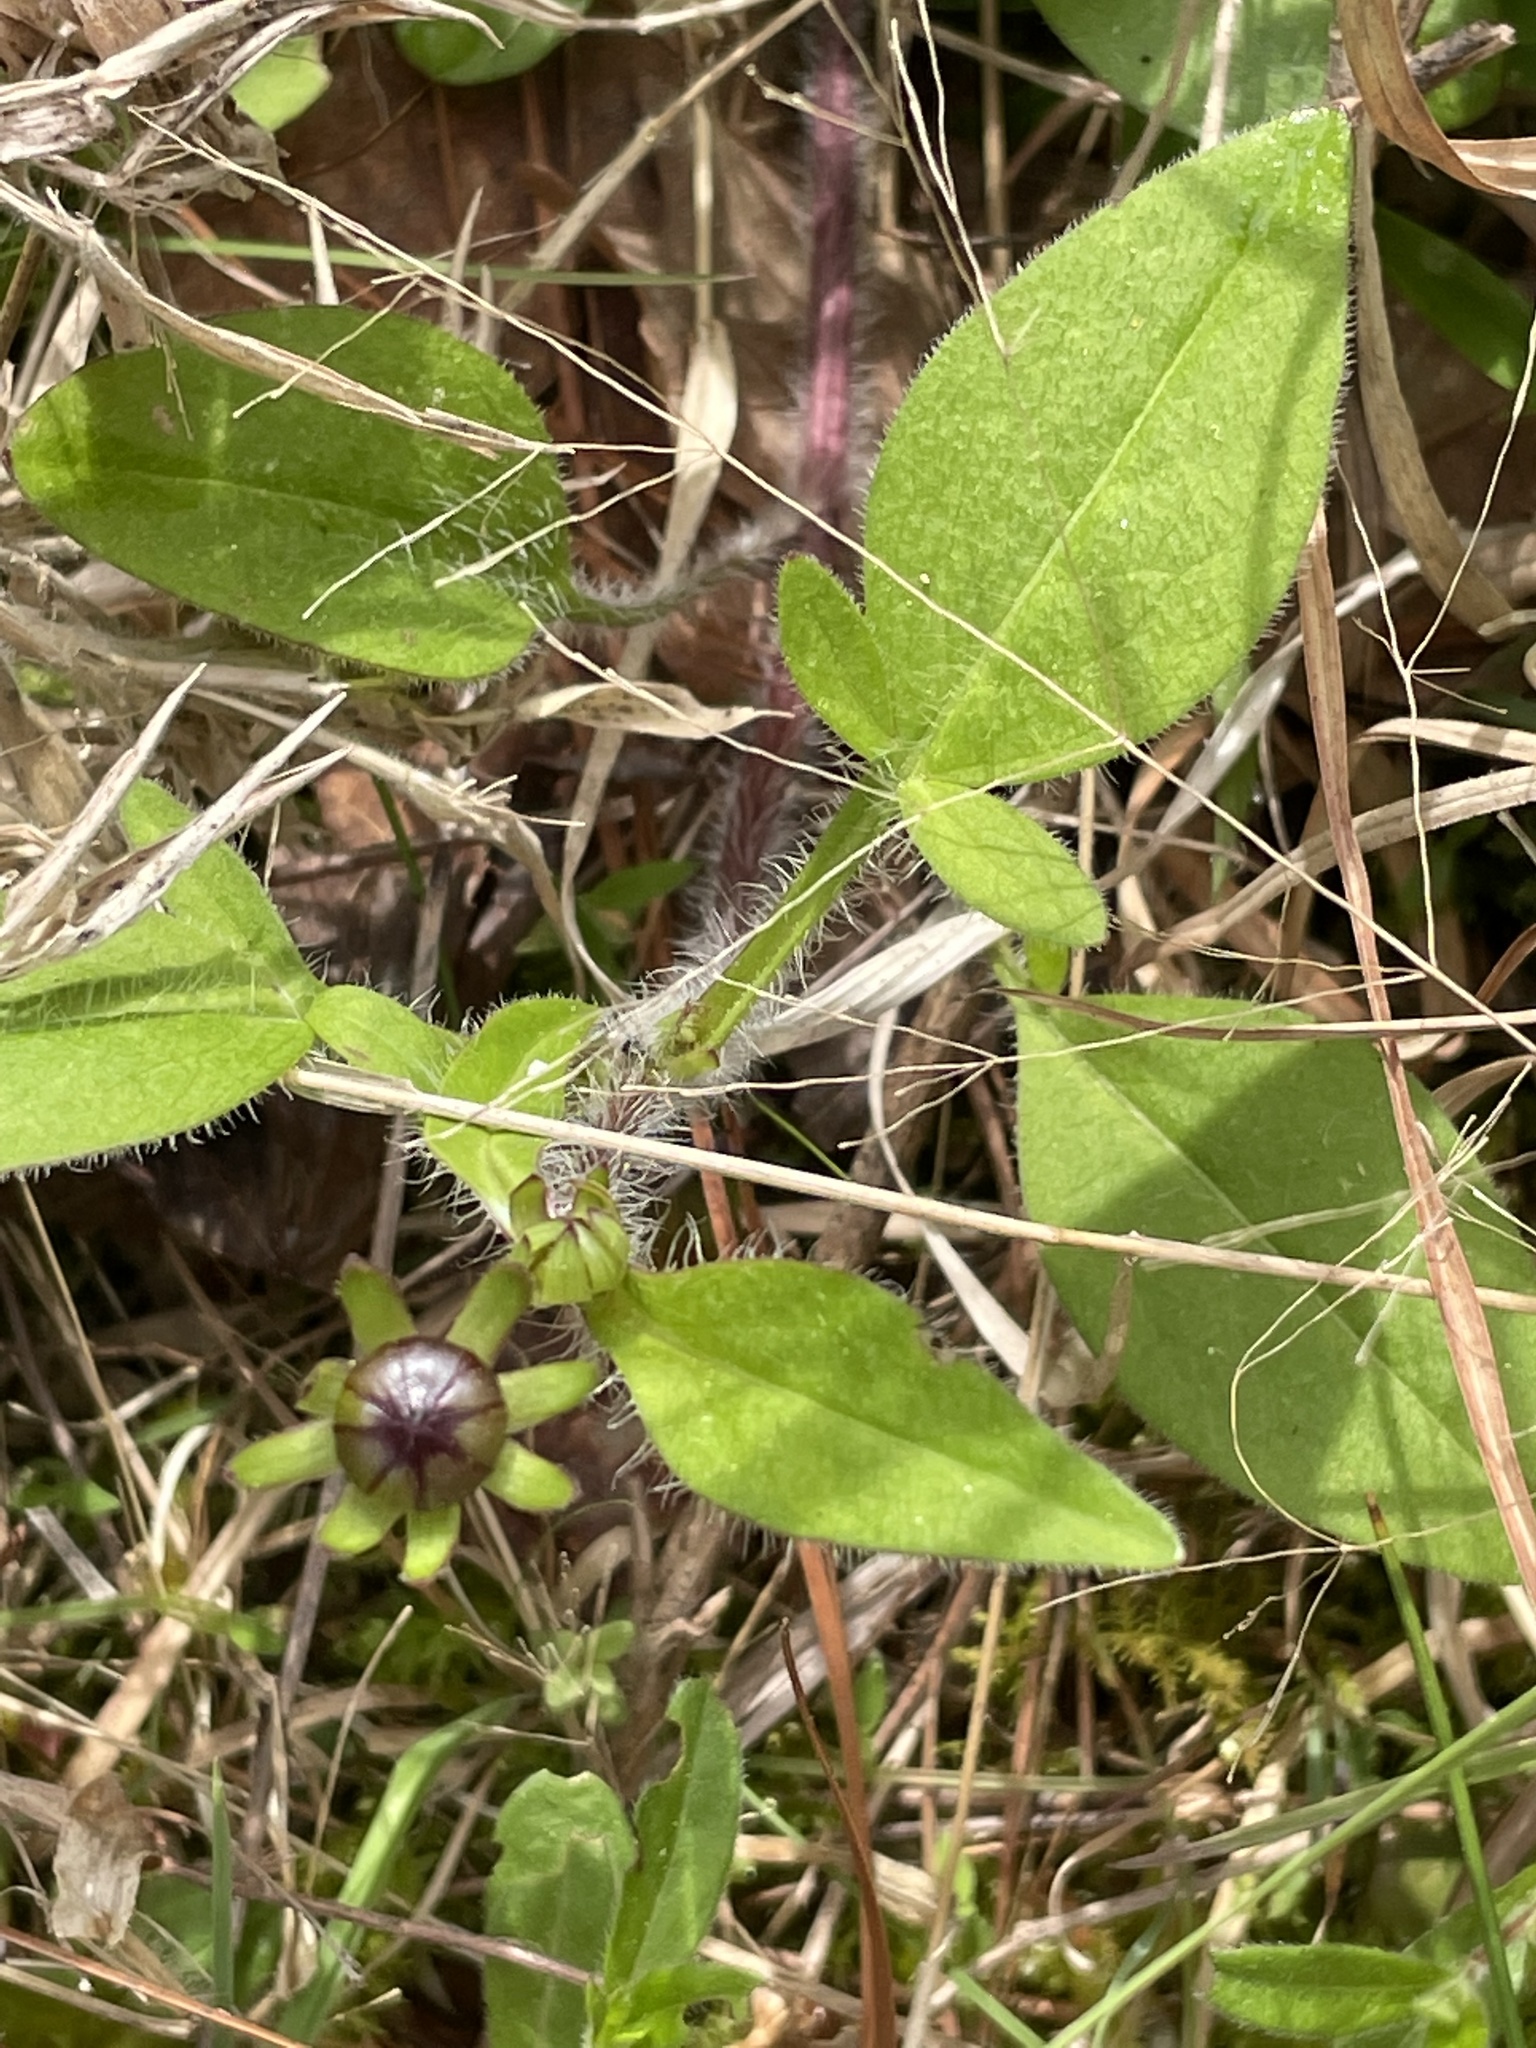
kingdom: Plantae
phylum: Tracheophyta
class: Magnoliopsida
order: Asterales
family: Asteraceae
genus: Coreopsis
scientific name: Coreopsis auriculata
